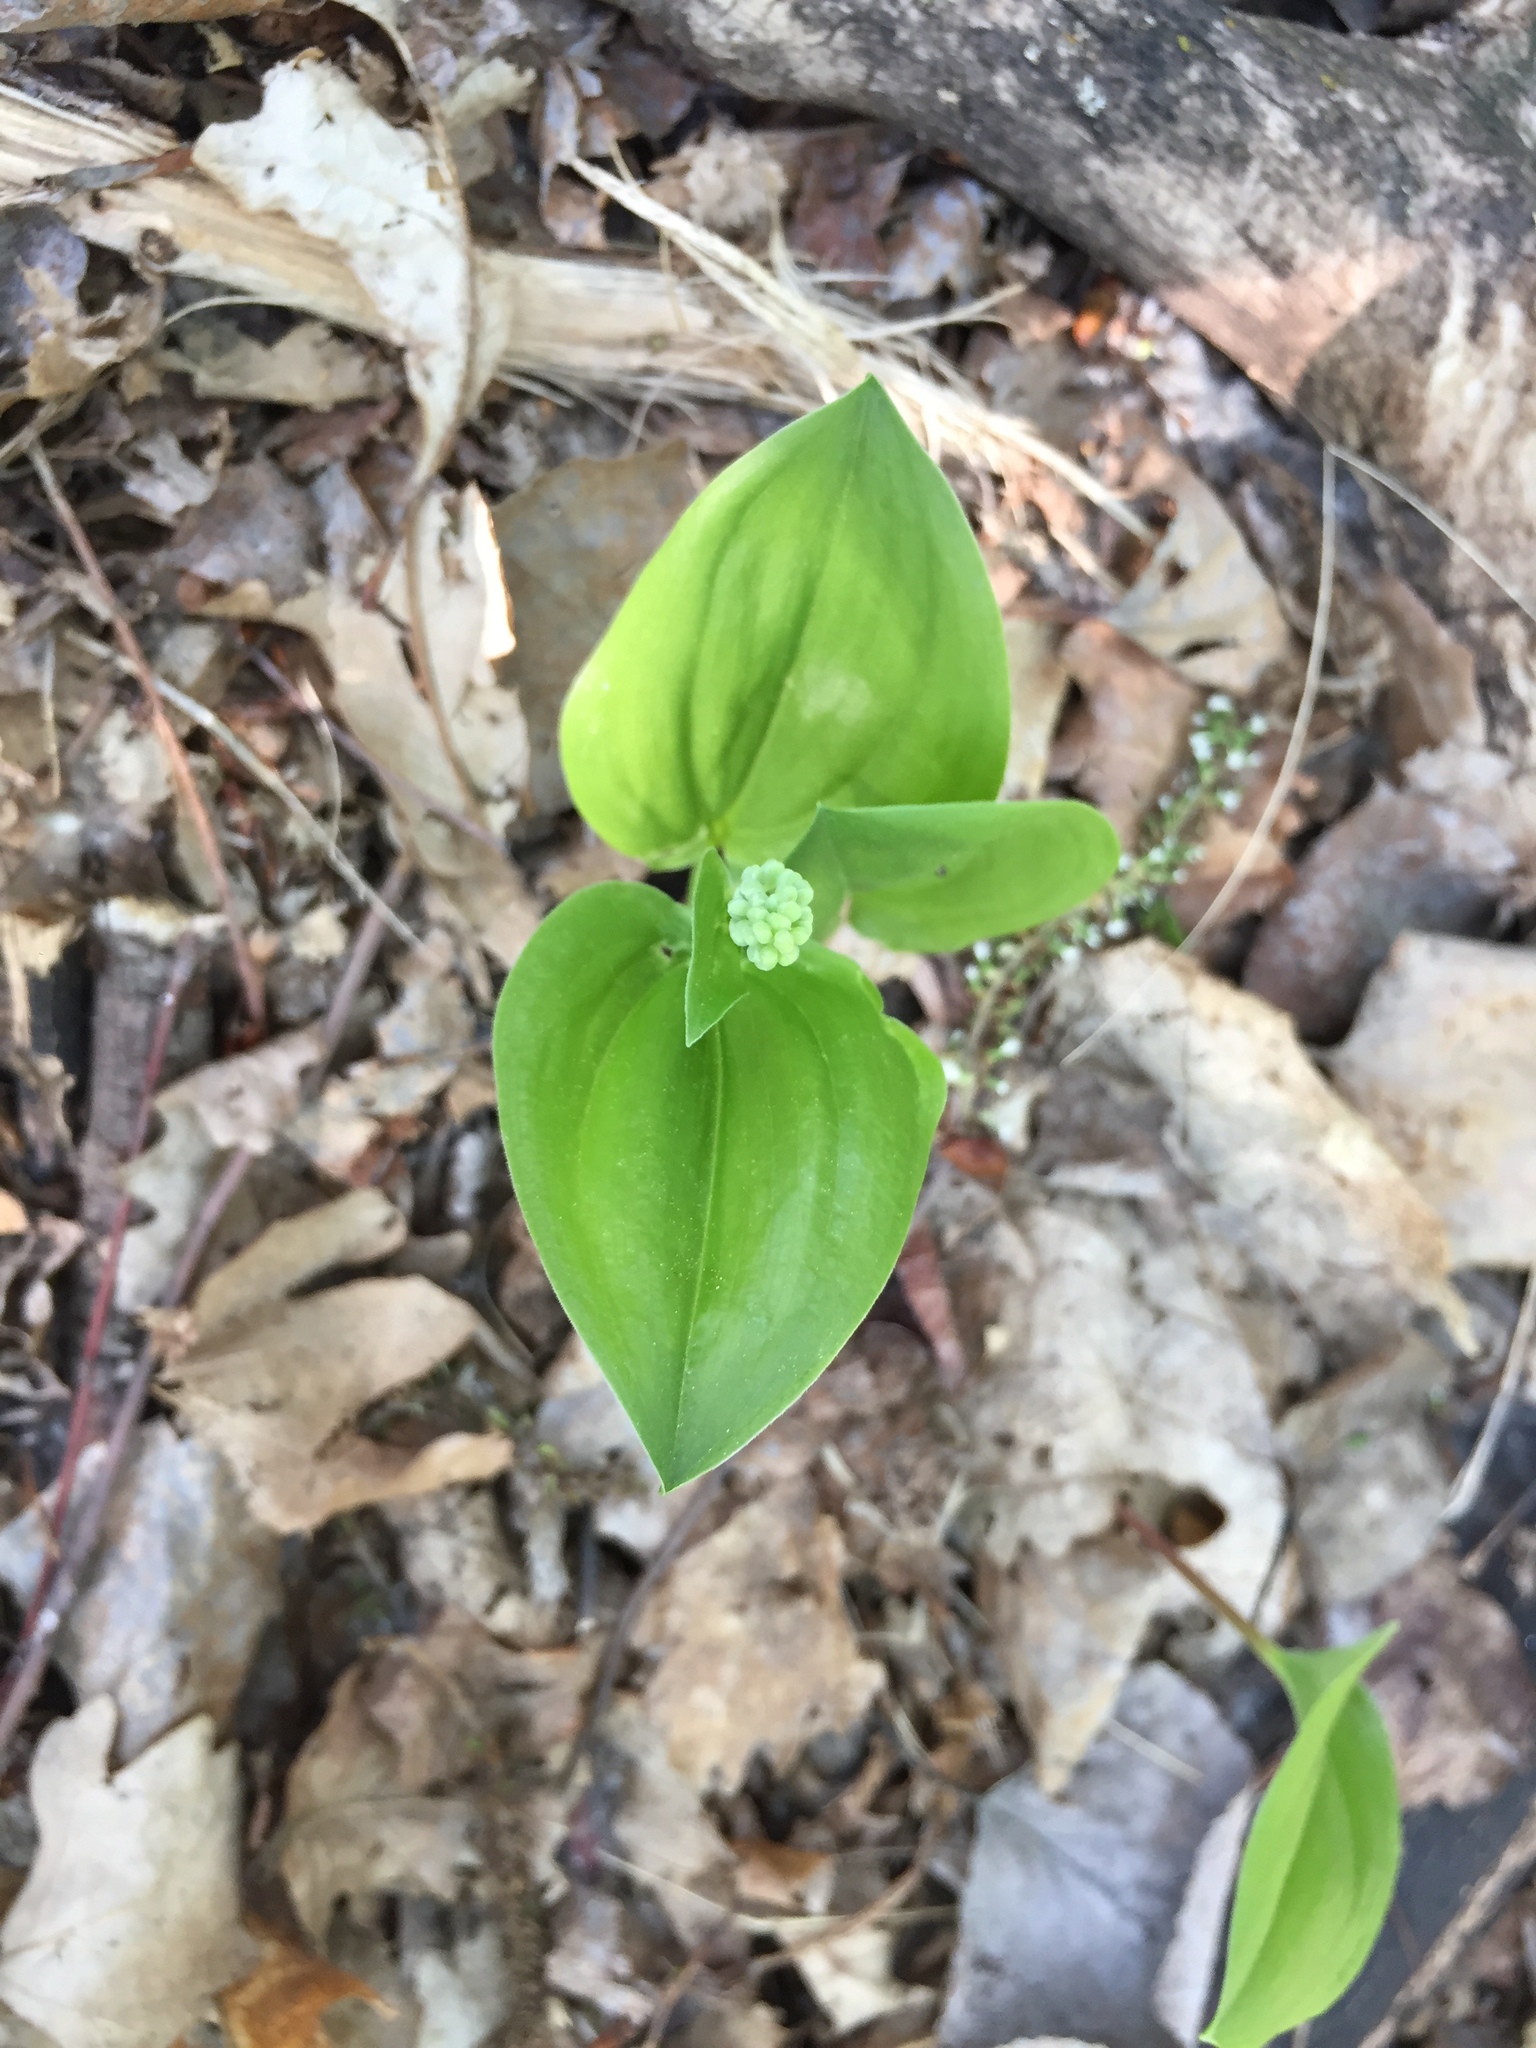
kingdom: Plantae
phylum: Tracheophyta
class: Liliopsida
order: Asparagales
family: Asparagaceae
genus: Maianthemum
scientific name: Maianthemum canadense
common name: False lily-of-the-valley
